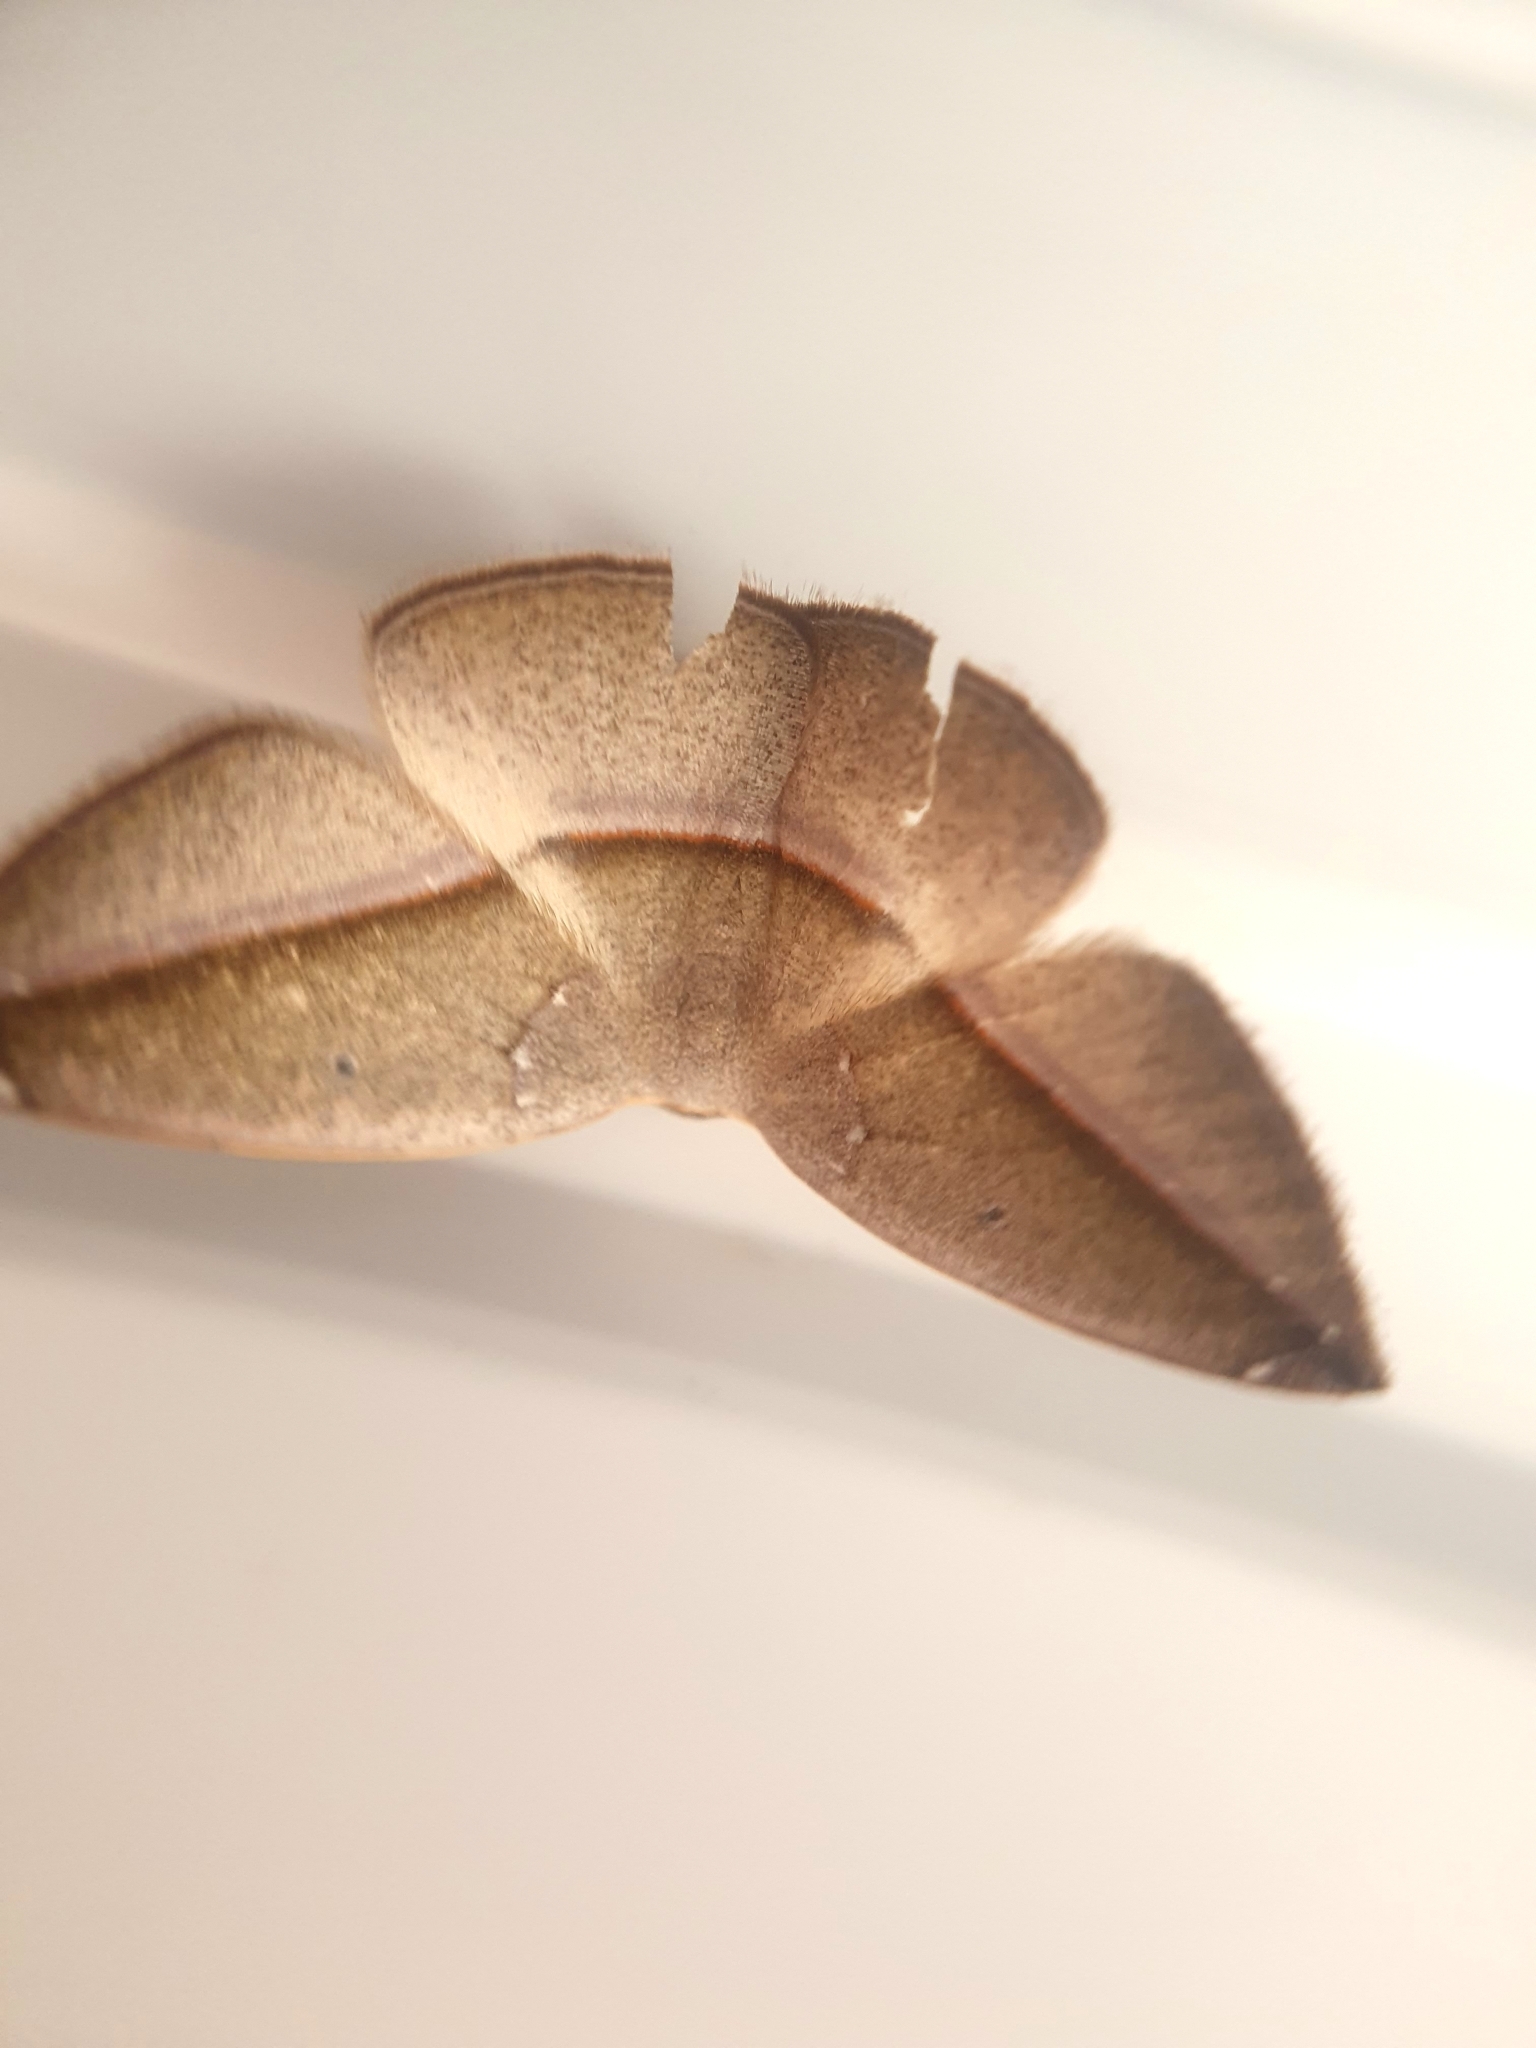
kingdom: Animalia
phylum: Arthropoda
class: Insecta
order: Lepidoptera
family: Geometridae
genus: Cartellodes
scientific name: Cartellodes levis
